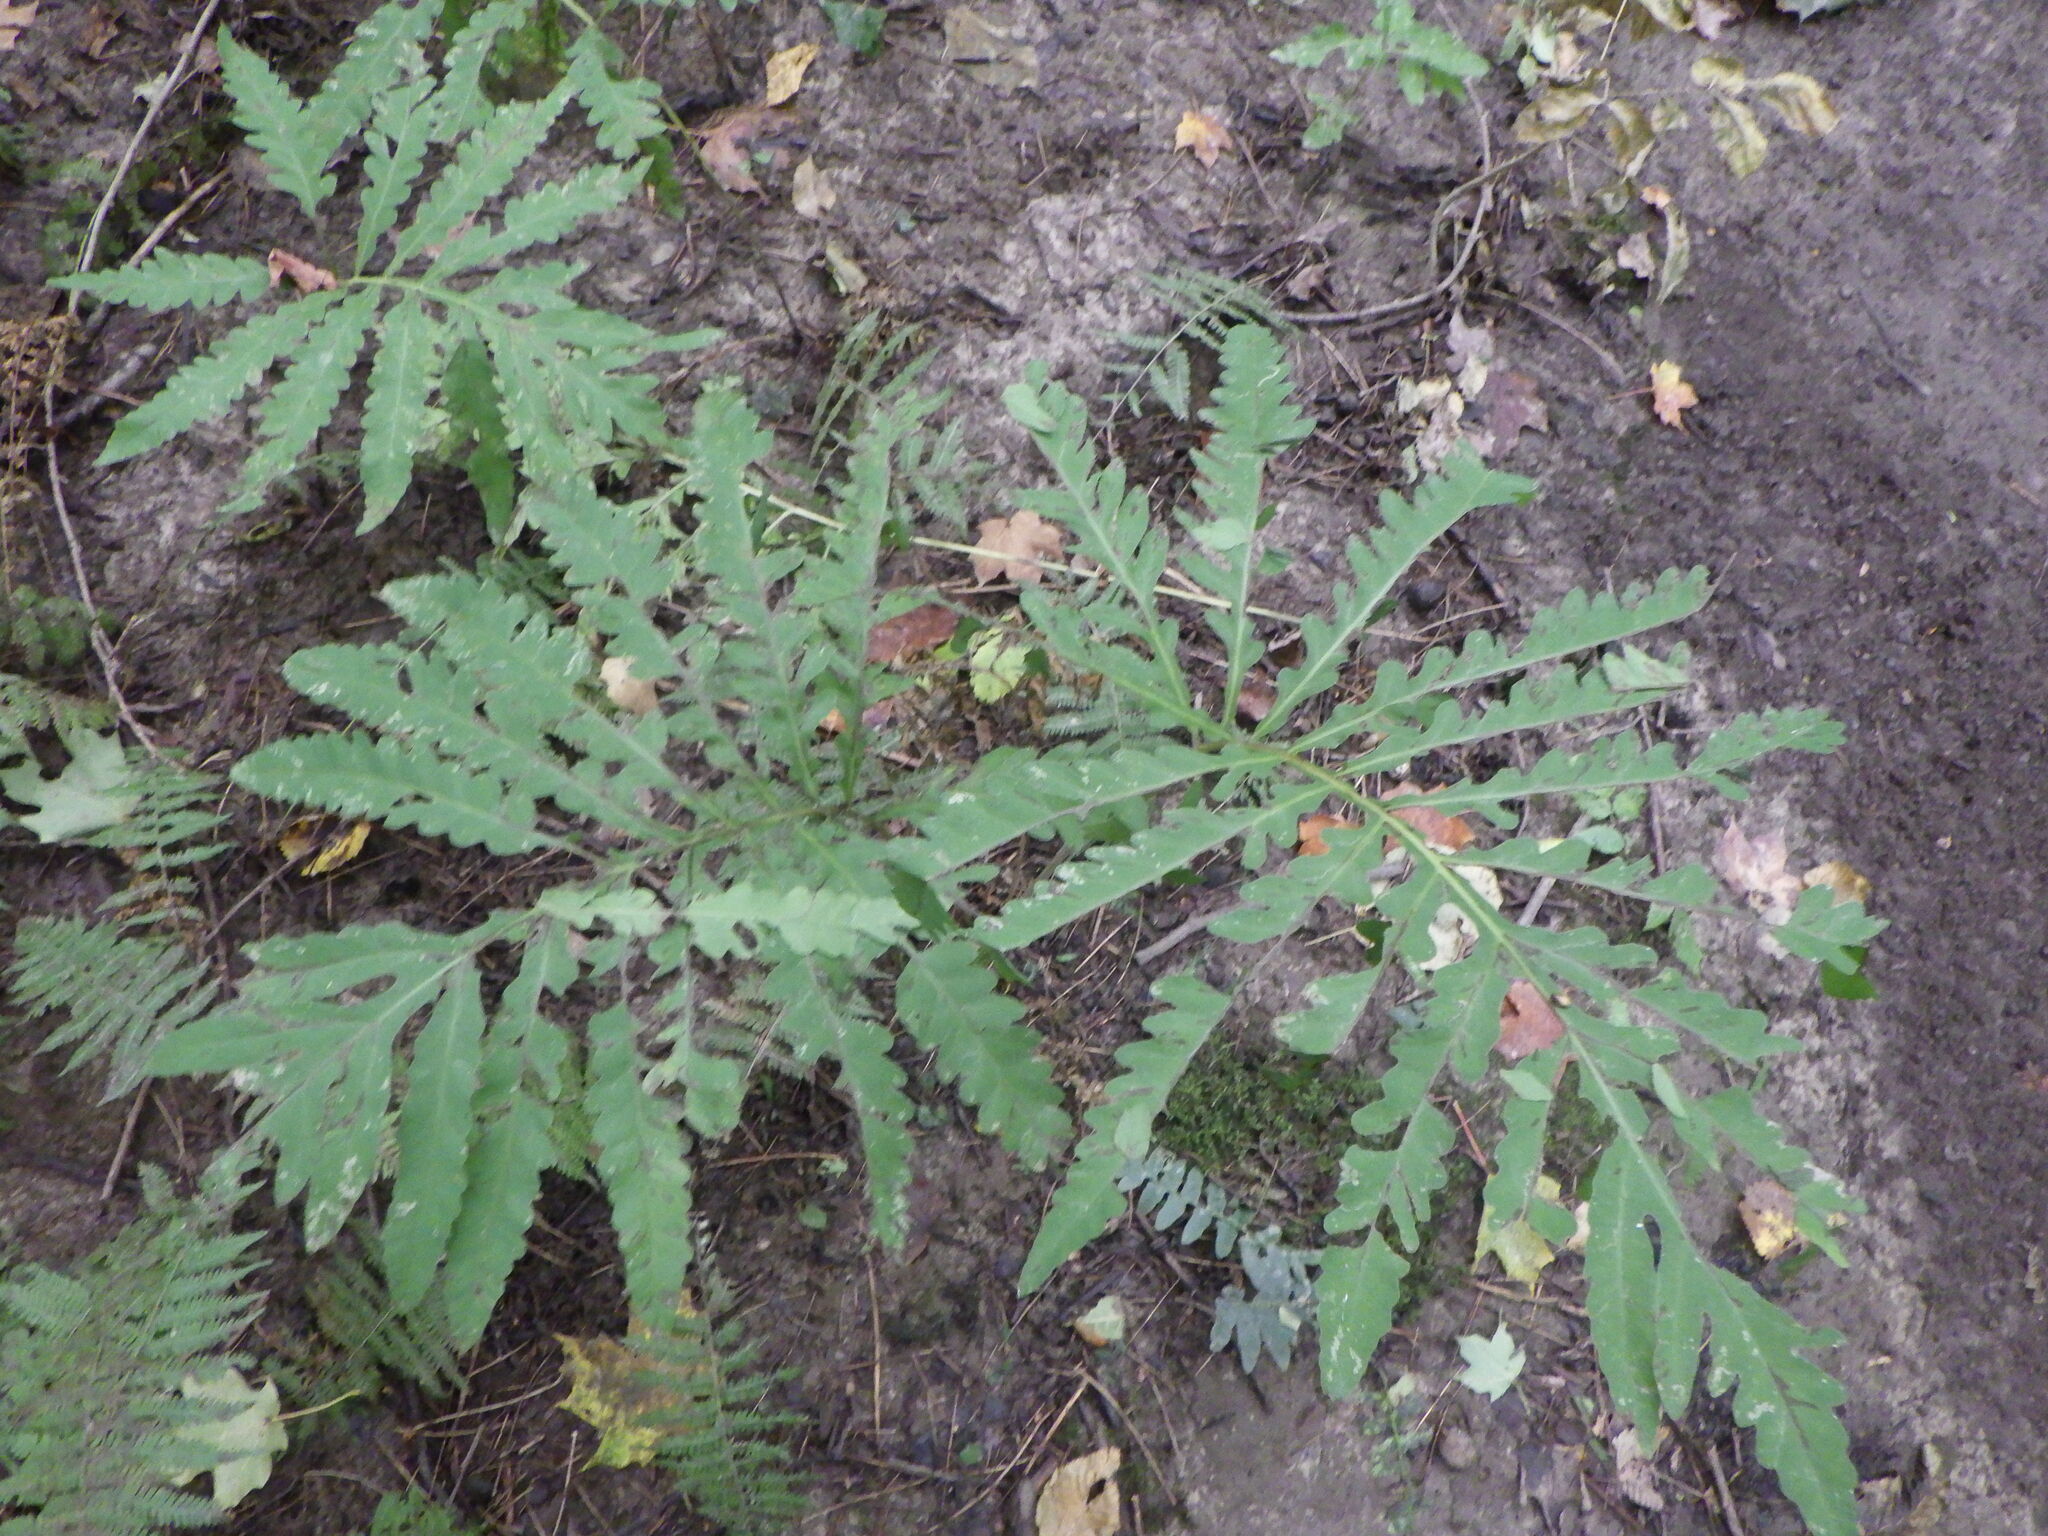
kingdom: Plantae
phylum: Tracheophyta
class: Polypodiopsida
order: Polypodiales
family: Onocleaceae
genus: Onoclea
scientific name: Onoclea sensibilis
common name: Sensitive fern
